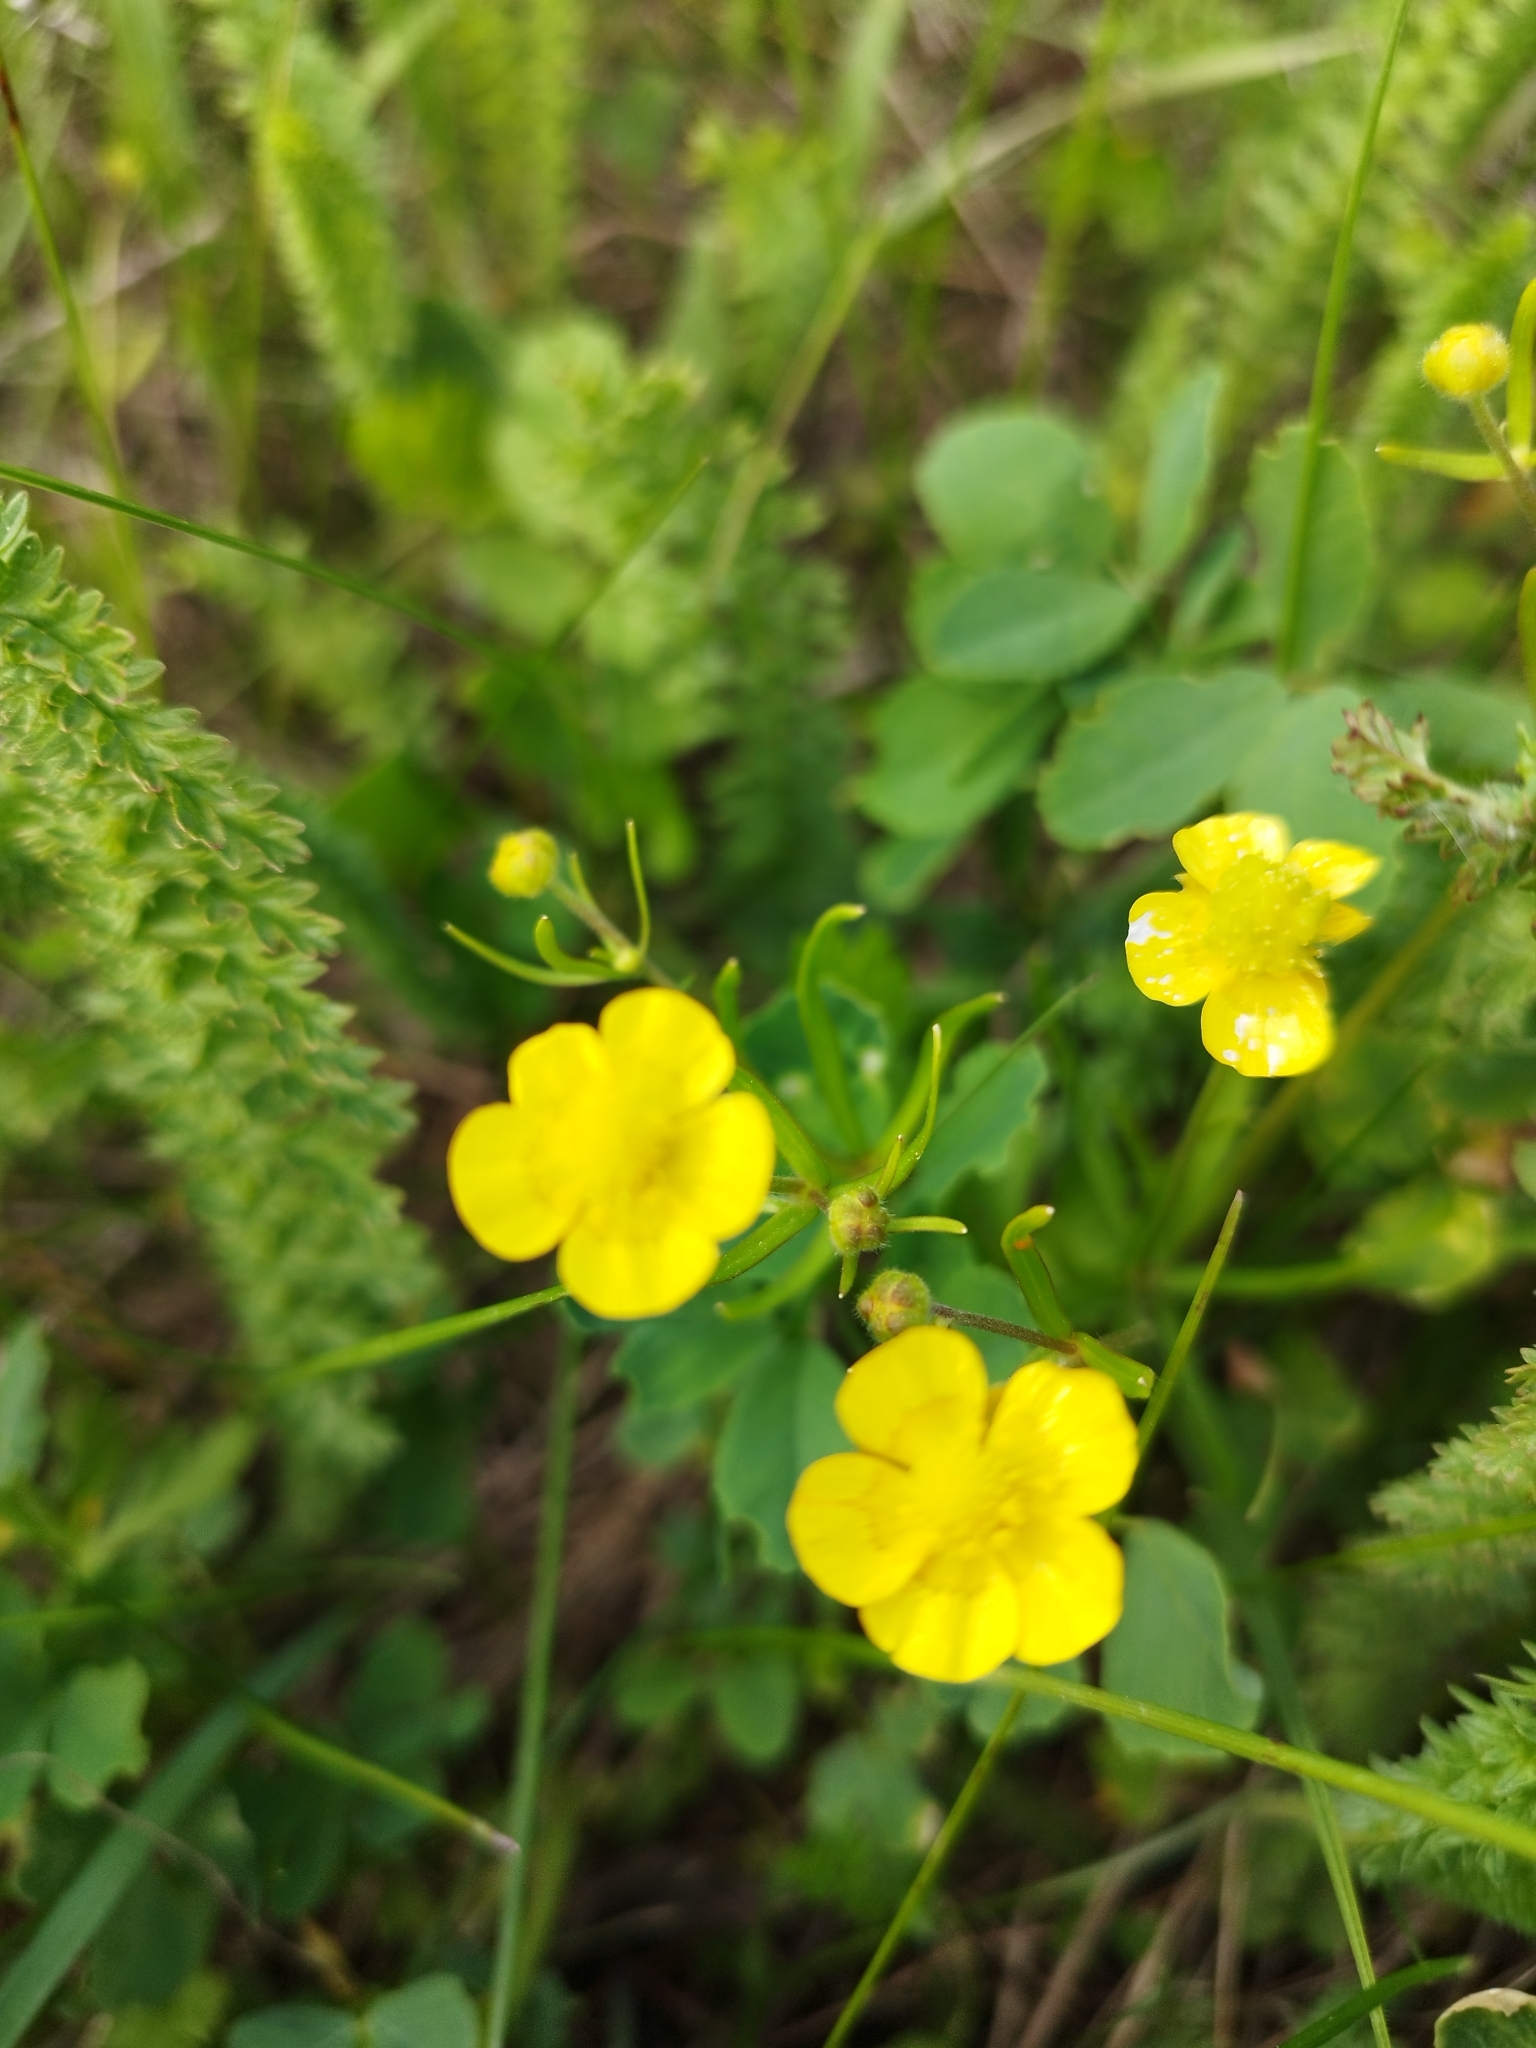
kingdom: Plantae
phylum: Tracheophyta
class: Magnoliopsida
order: Ranunculales
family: Ranunculaceae
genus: Ranunculus
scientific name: Ranunculus
